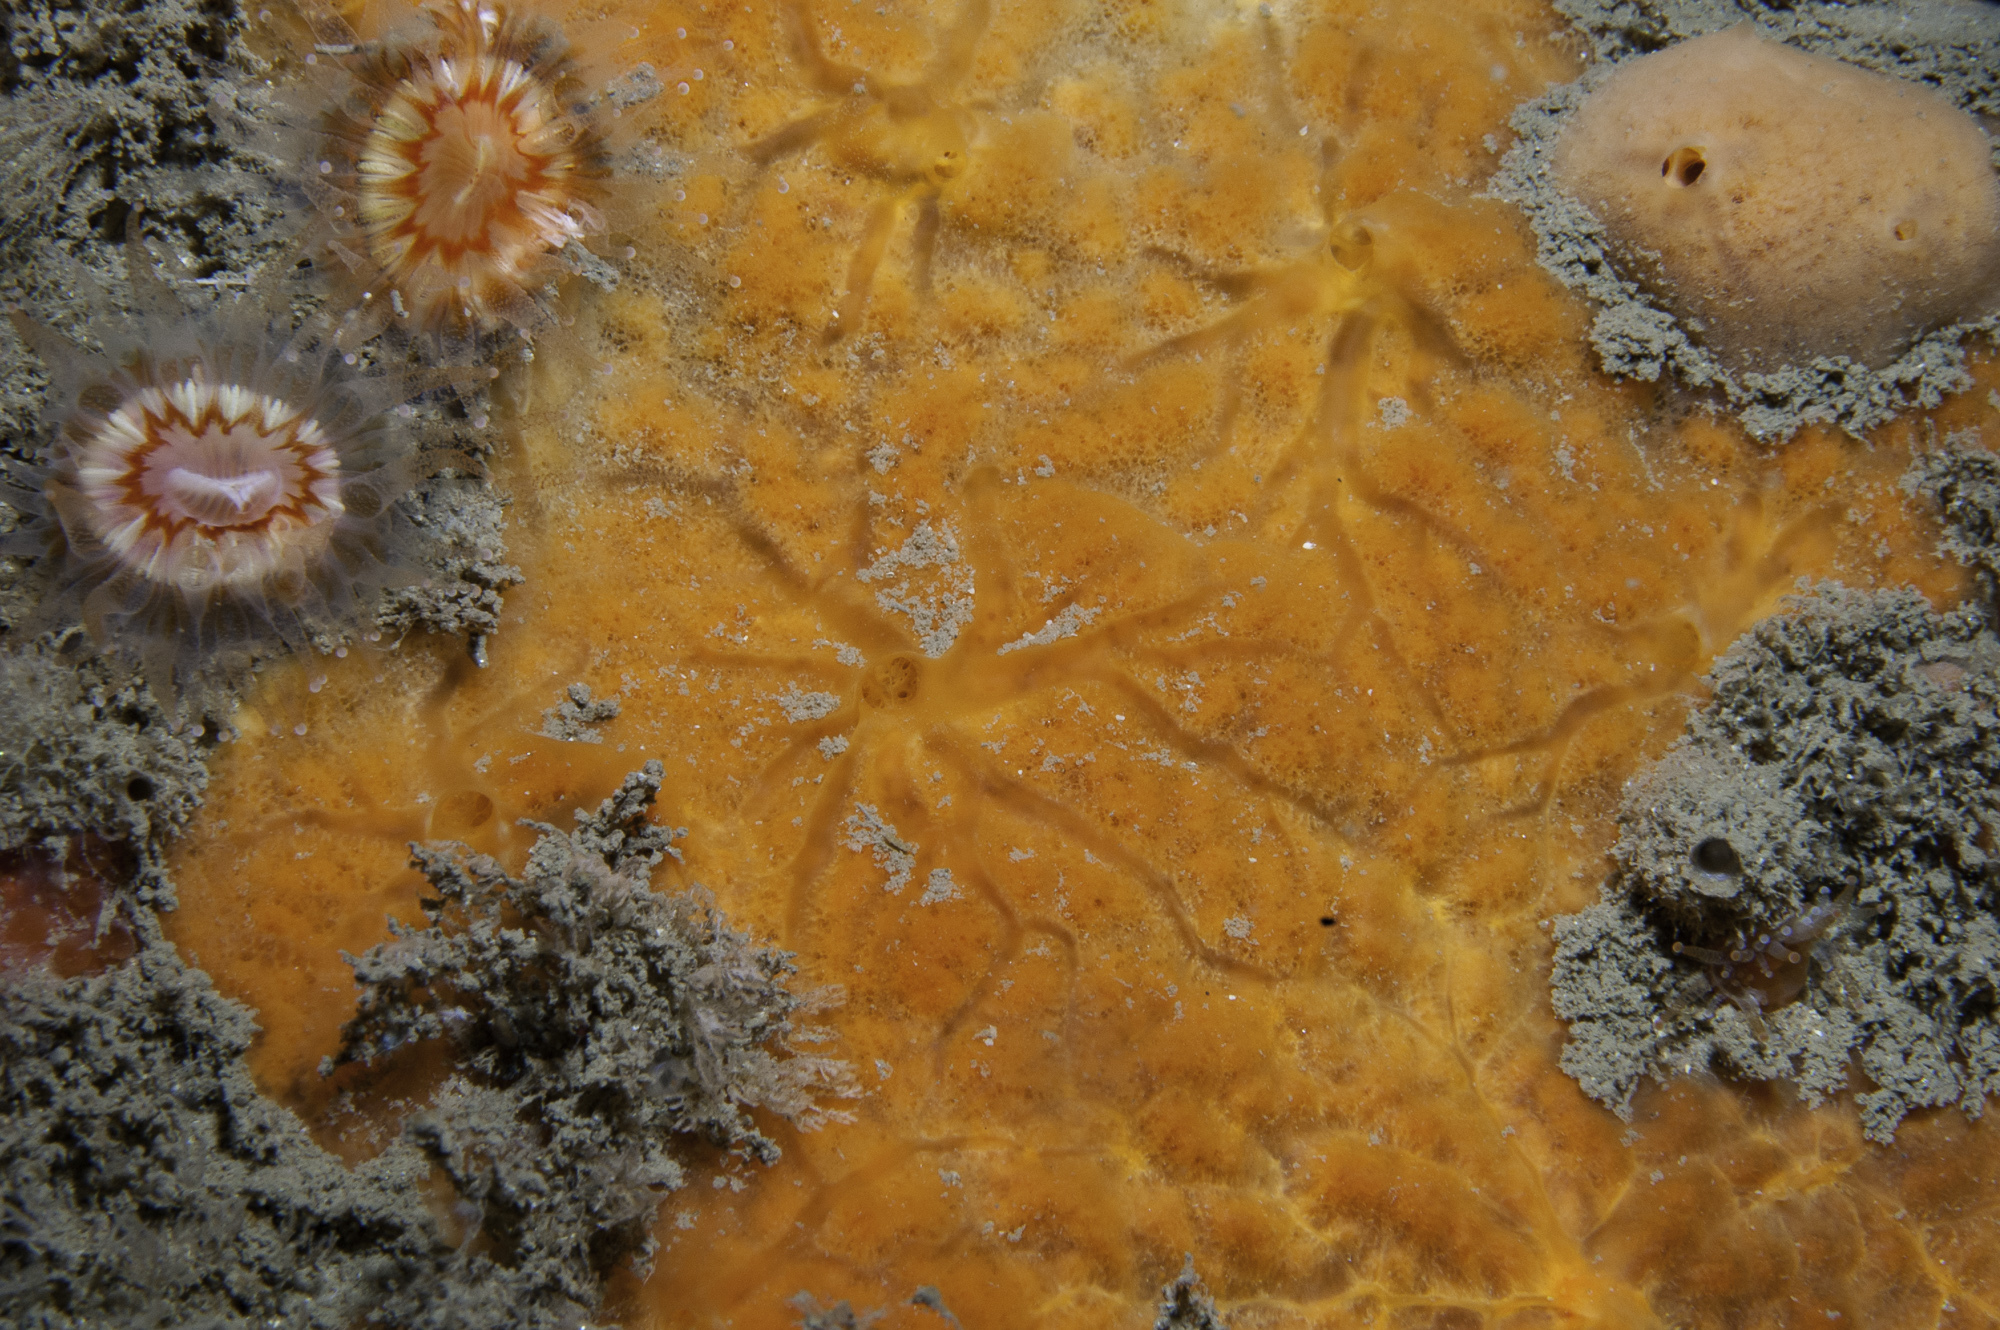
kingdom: Animalia
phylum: Porifera
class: Demospongiae
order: Poecilosclerida
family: Microcionidae
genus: Clathria
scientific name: Clathria spinarcus
